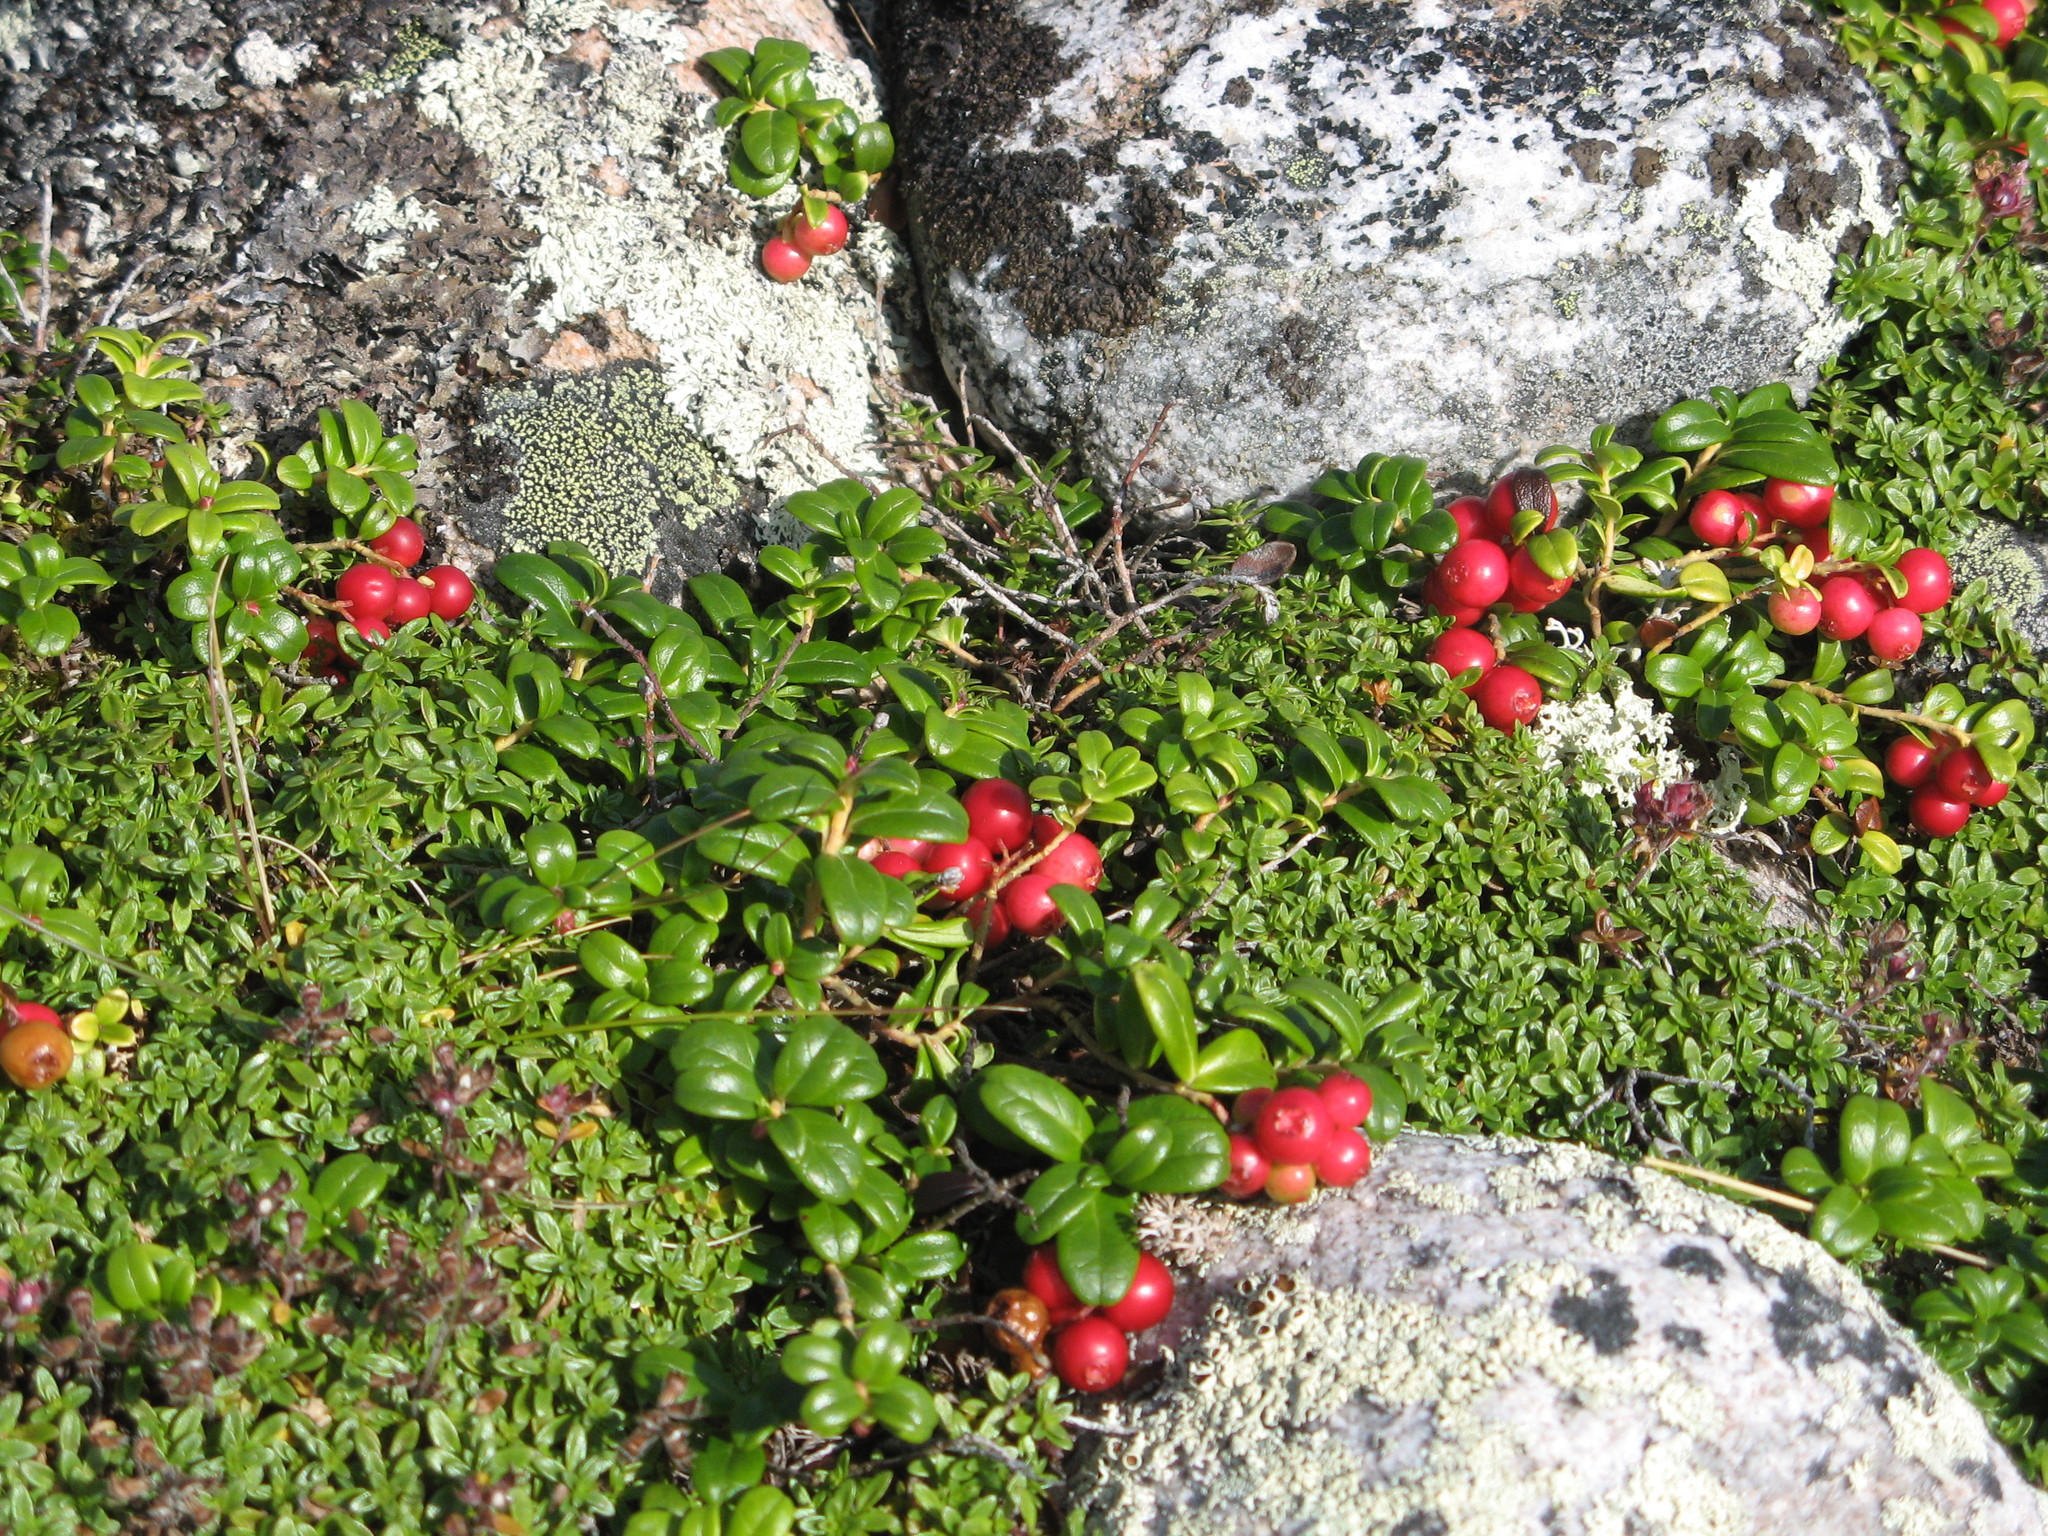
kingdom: Plantae
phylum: Tracheophyta
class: Magnoliopsida
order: Ericales
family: Ericaceae
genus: Vaccinium
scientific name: Vaccinium vitis-idaea
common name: Cowberry
